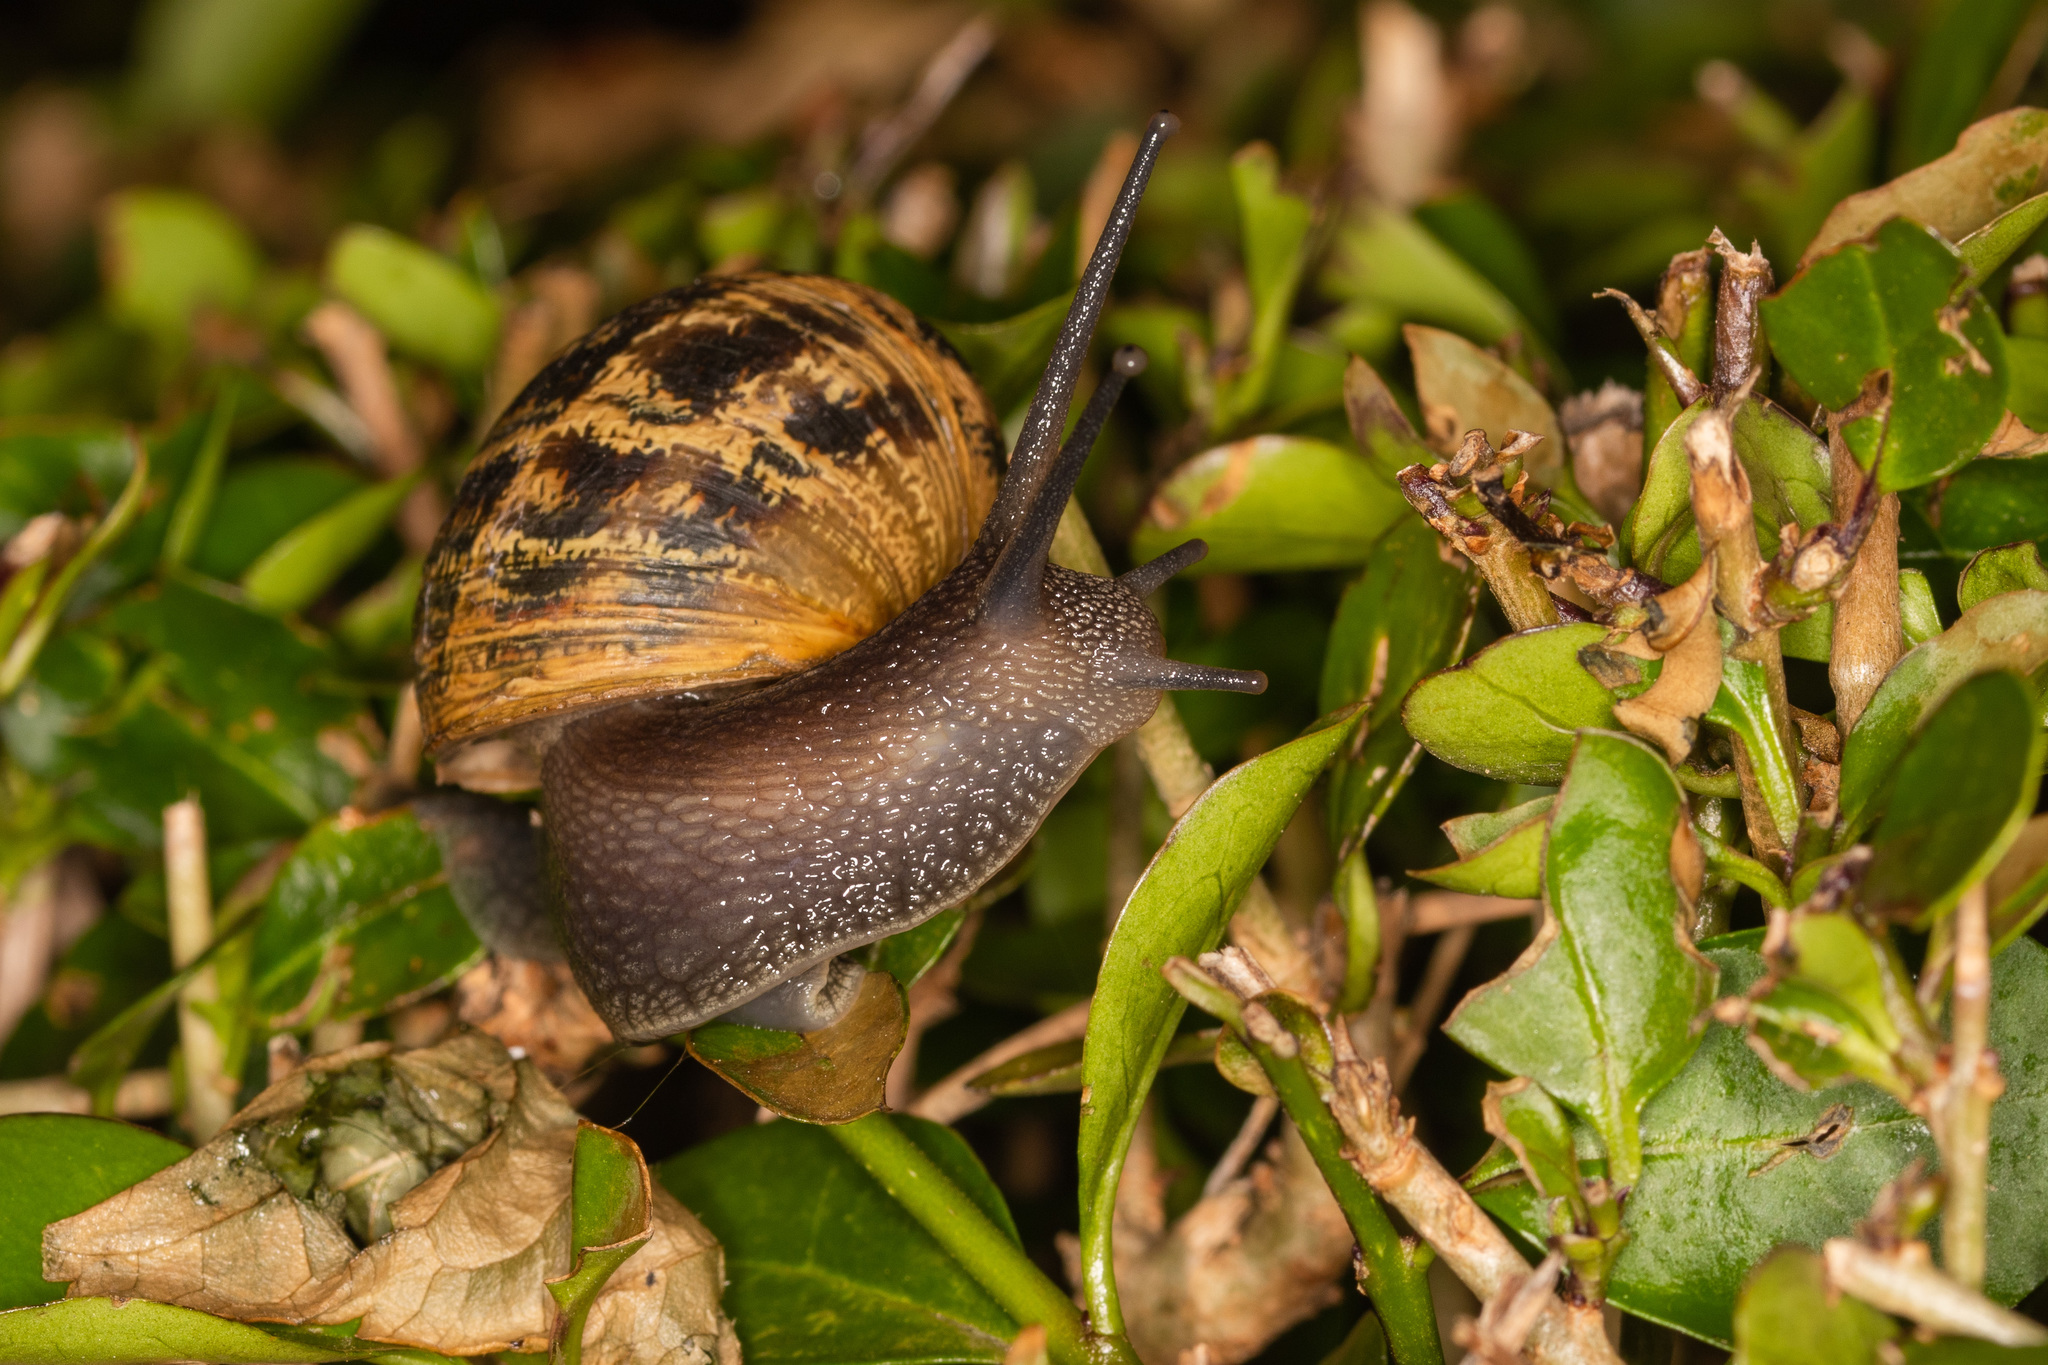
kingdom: Animalia
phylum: Mollusca
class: Gastropoda
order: Stylommatophora
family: Helicidae
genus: Cornu
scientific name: Cornu aspersum
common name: Brown garden snail
